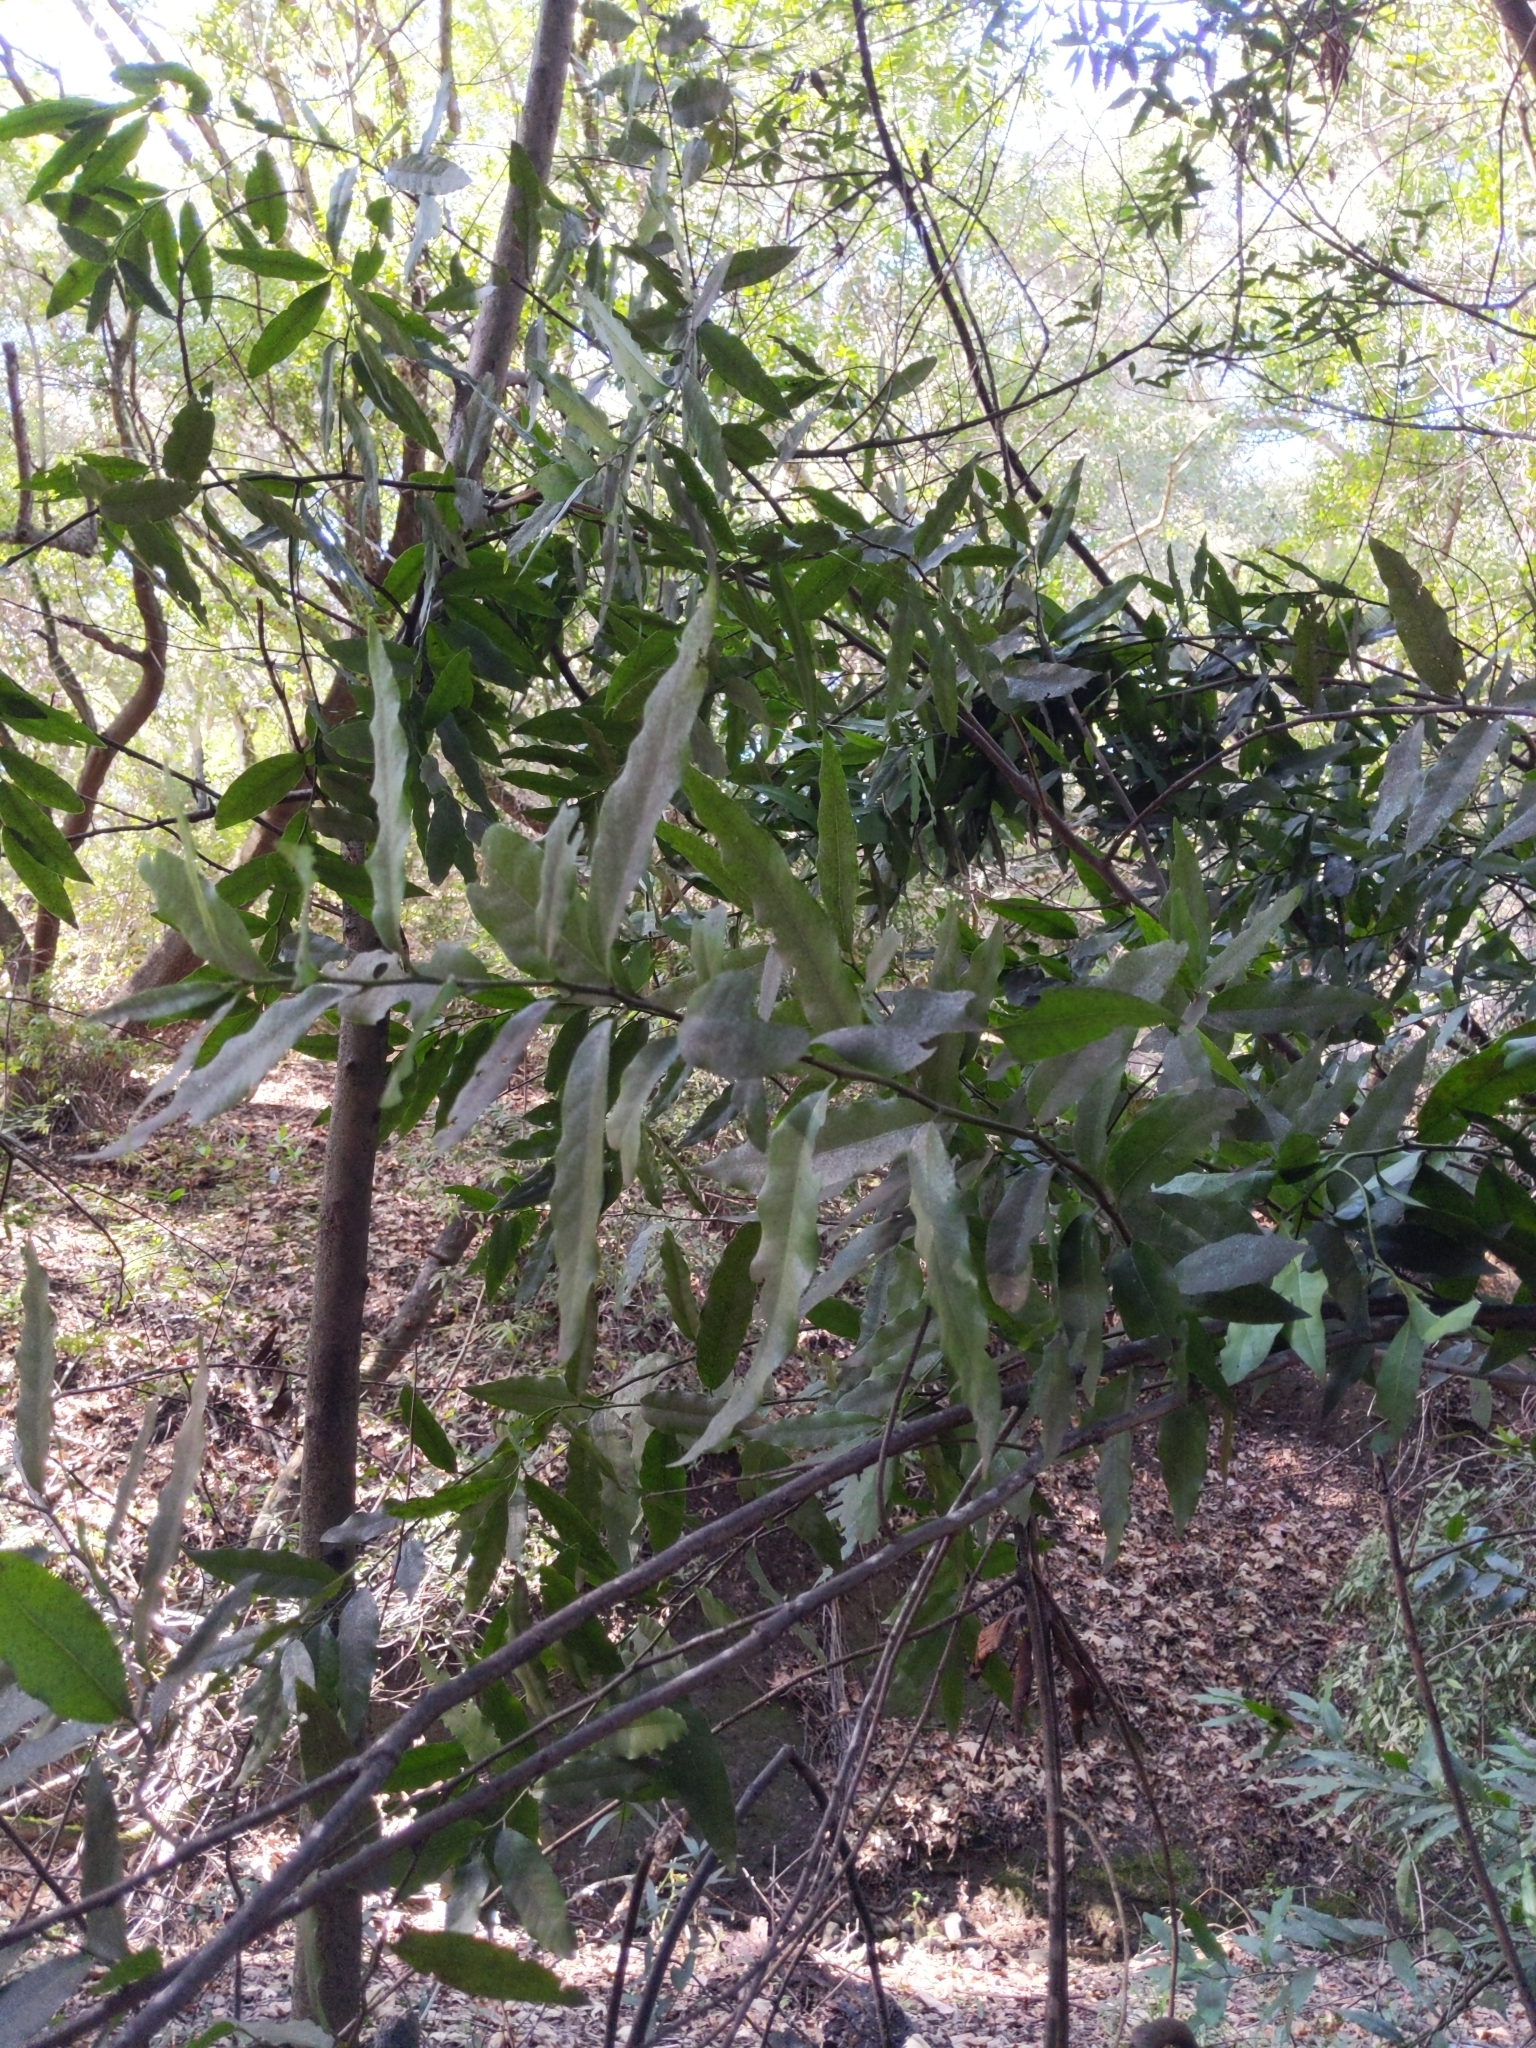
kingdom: Plantae
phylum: Tracheophyta
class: Magnoliopsida
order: Laurales
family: Lauraceae
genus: Umbellularia
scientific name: Umbellularia californica
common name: California bay
